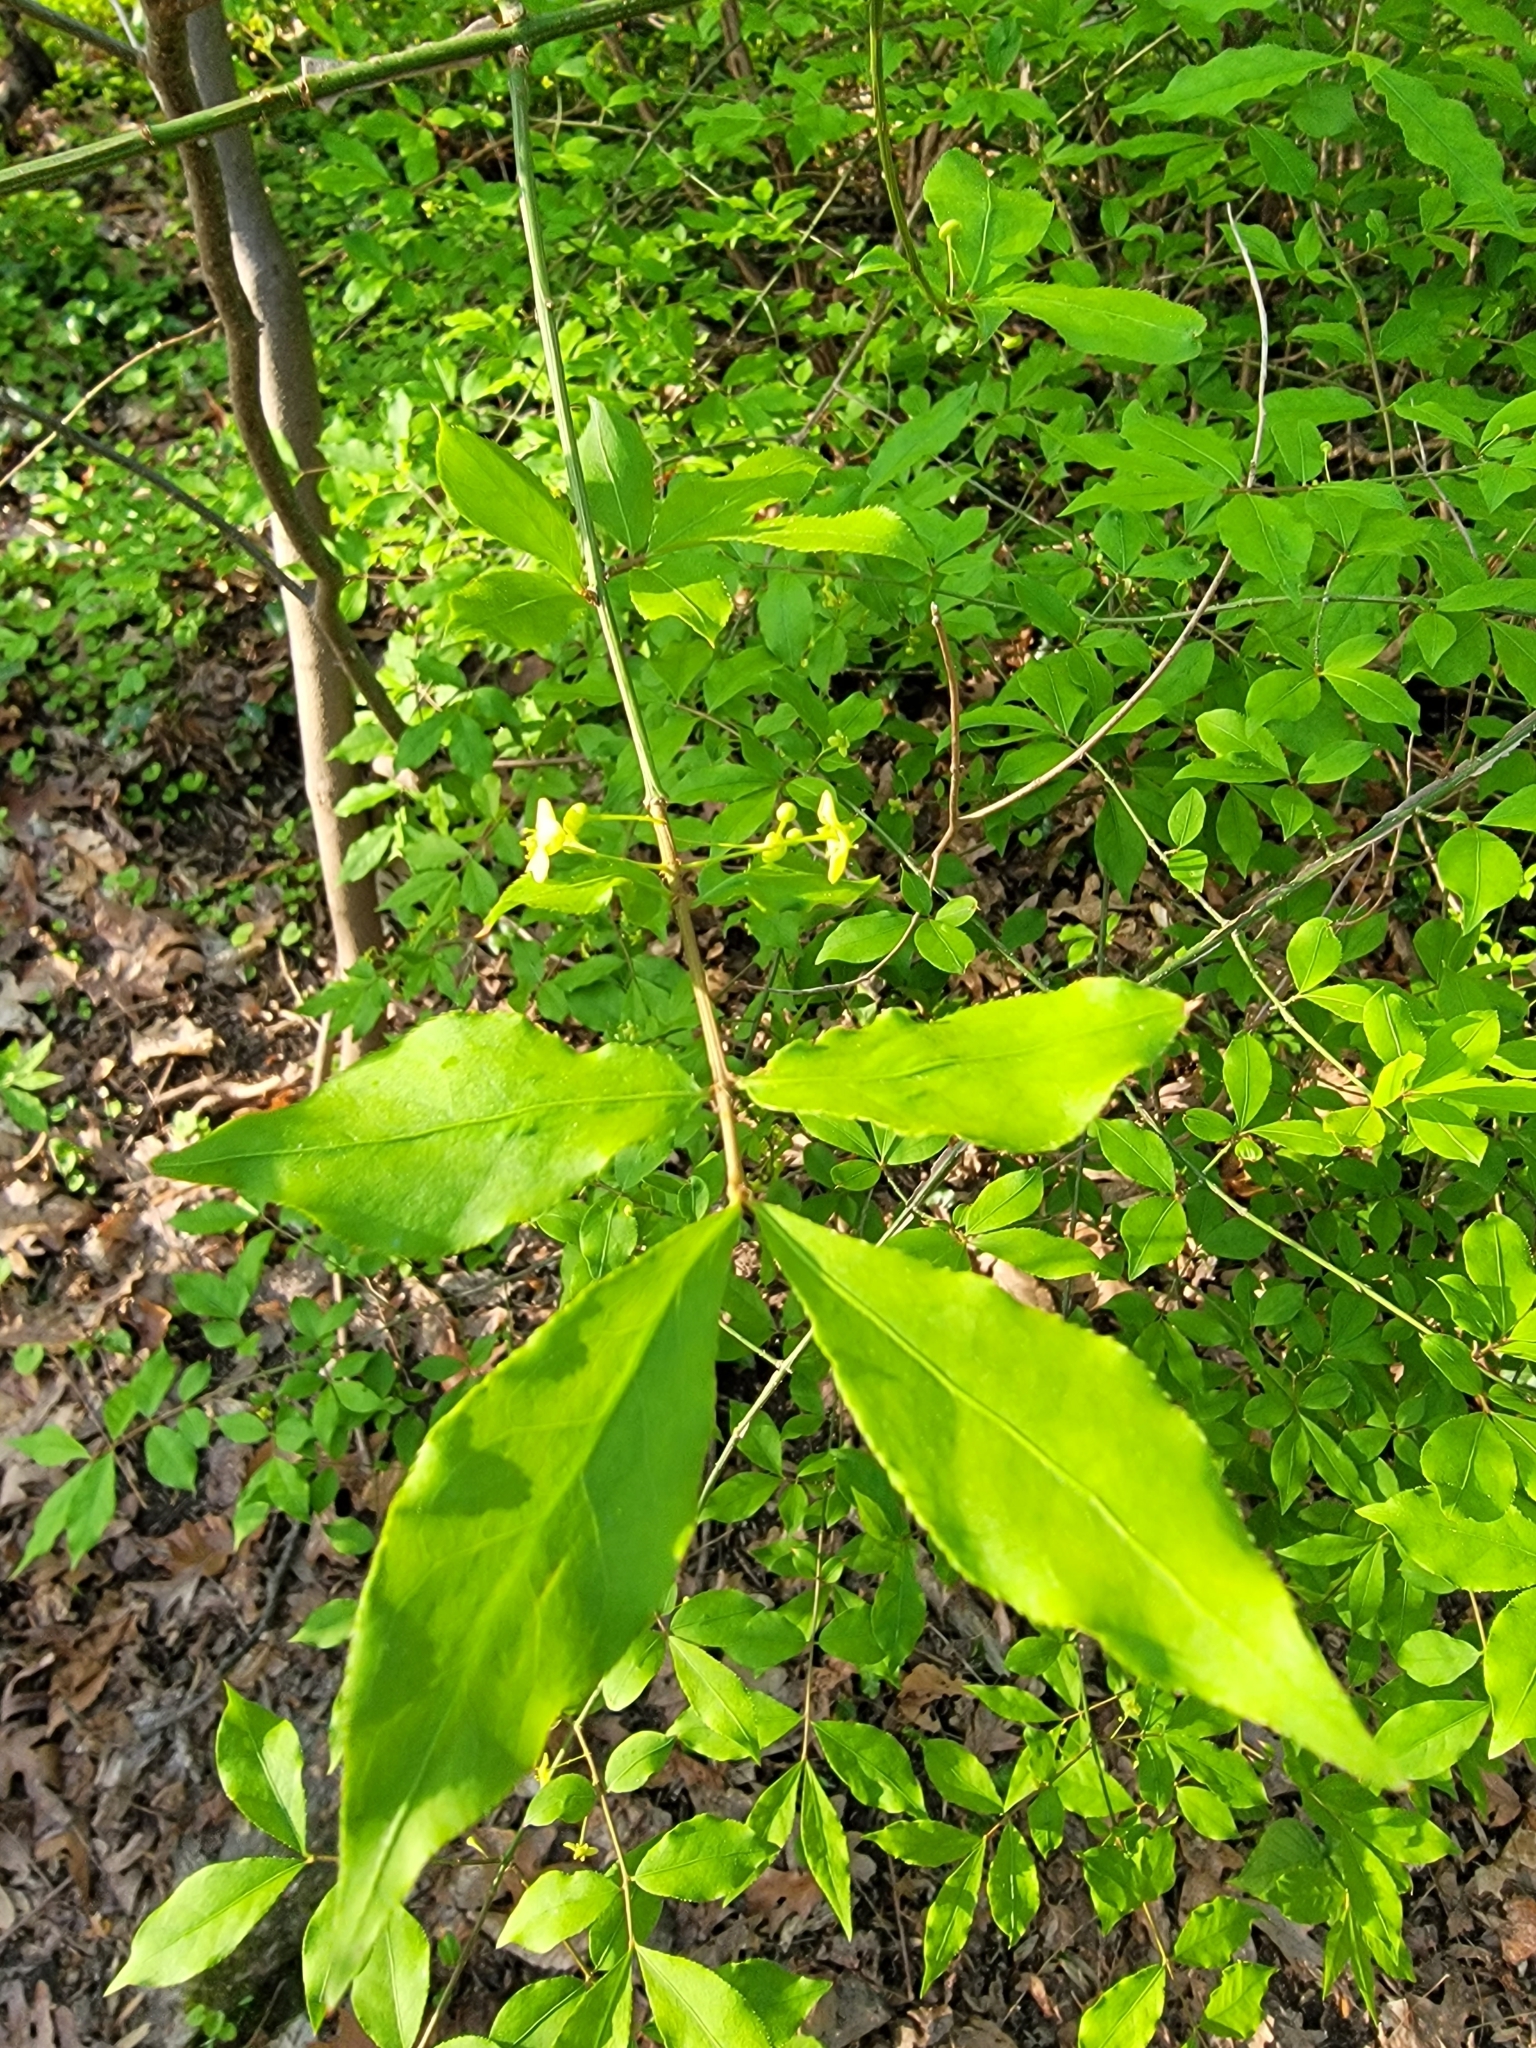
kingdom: Plantae
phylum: Tracheophyta
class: Magnoliopsida
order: Celastrales
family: Celastraceae
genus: Euonymus
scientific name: Euonymus alatus
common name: Winged euonymus
